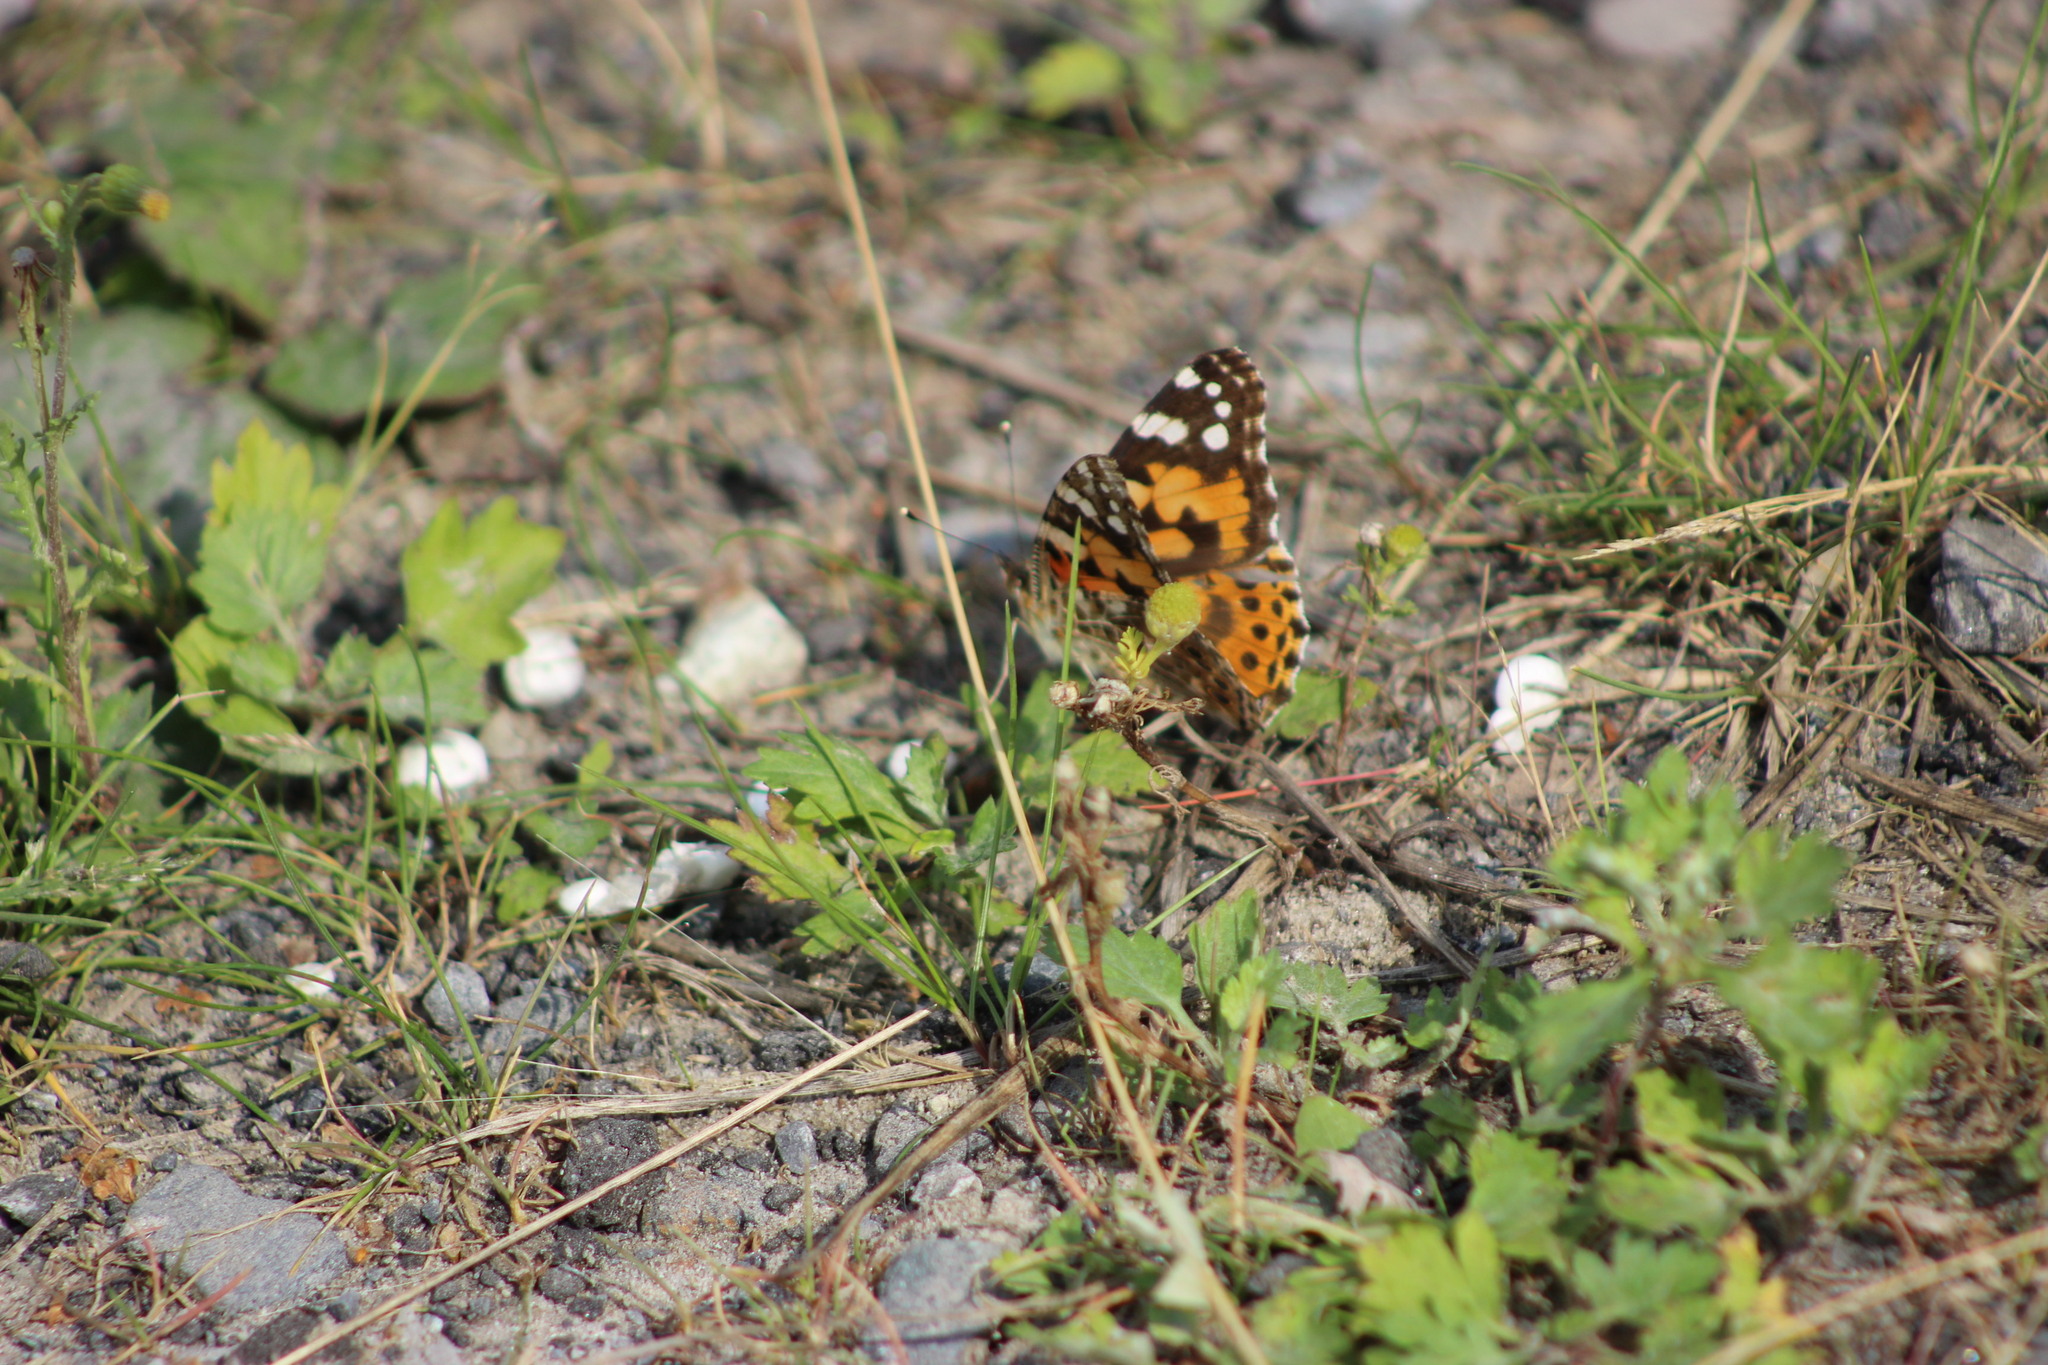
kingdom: Animalia
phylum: Arthropoda
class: Insecta
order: Lepidoptera
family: Nymphalidae
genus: Vanessa
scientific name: Vanessa cardui
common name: Painted lady
